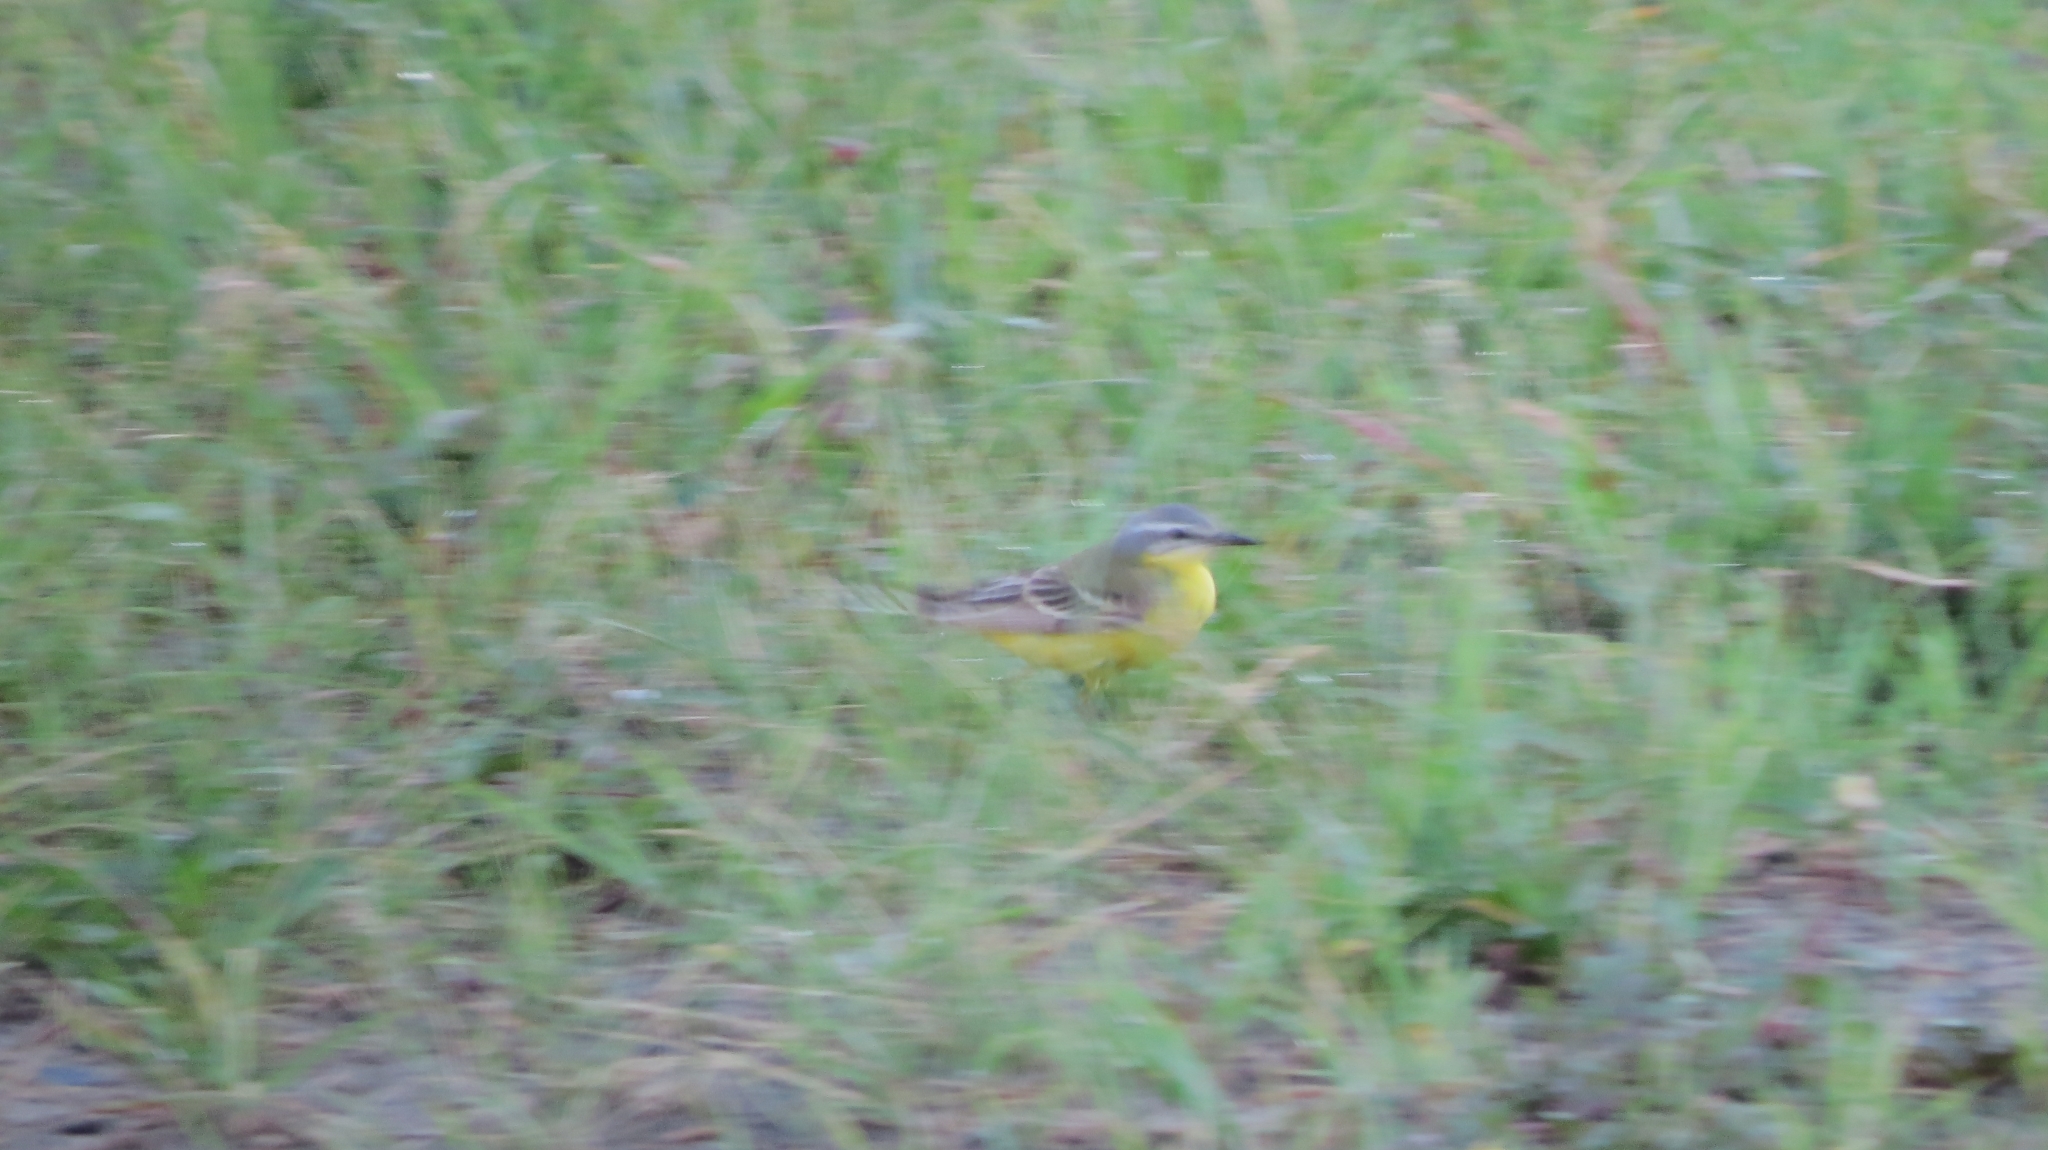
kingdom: Animalia
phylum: Chordata
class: Aves
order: Passeriformes
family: Motacillidae
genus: Motacilla
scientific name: Motacilla flava
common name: Western yellow wagtail
